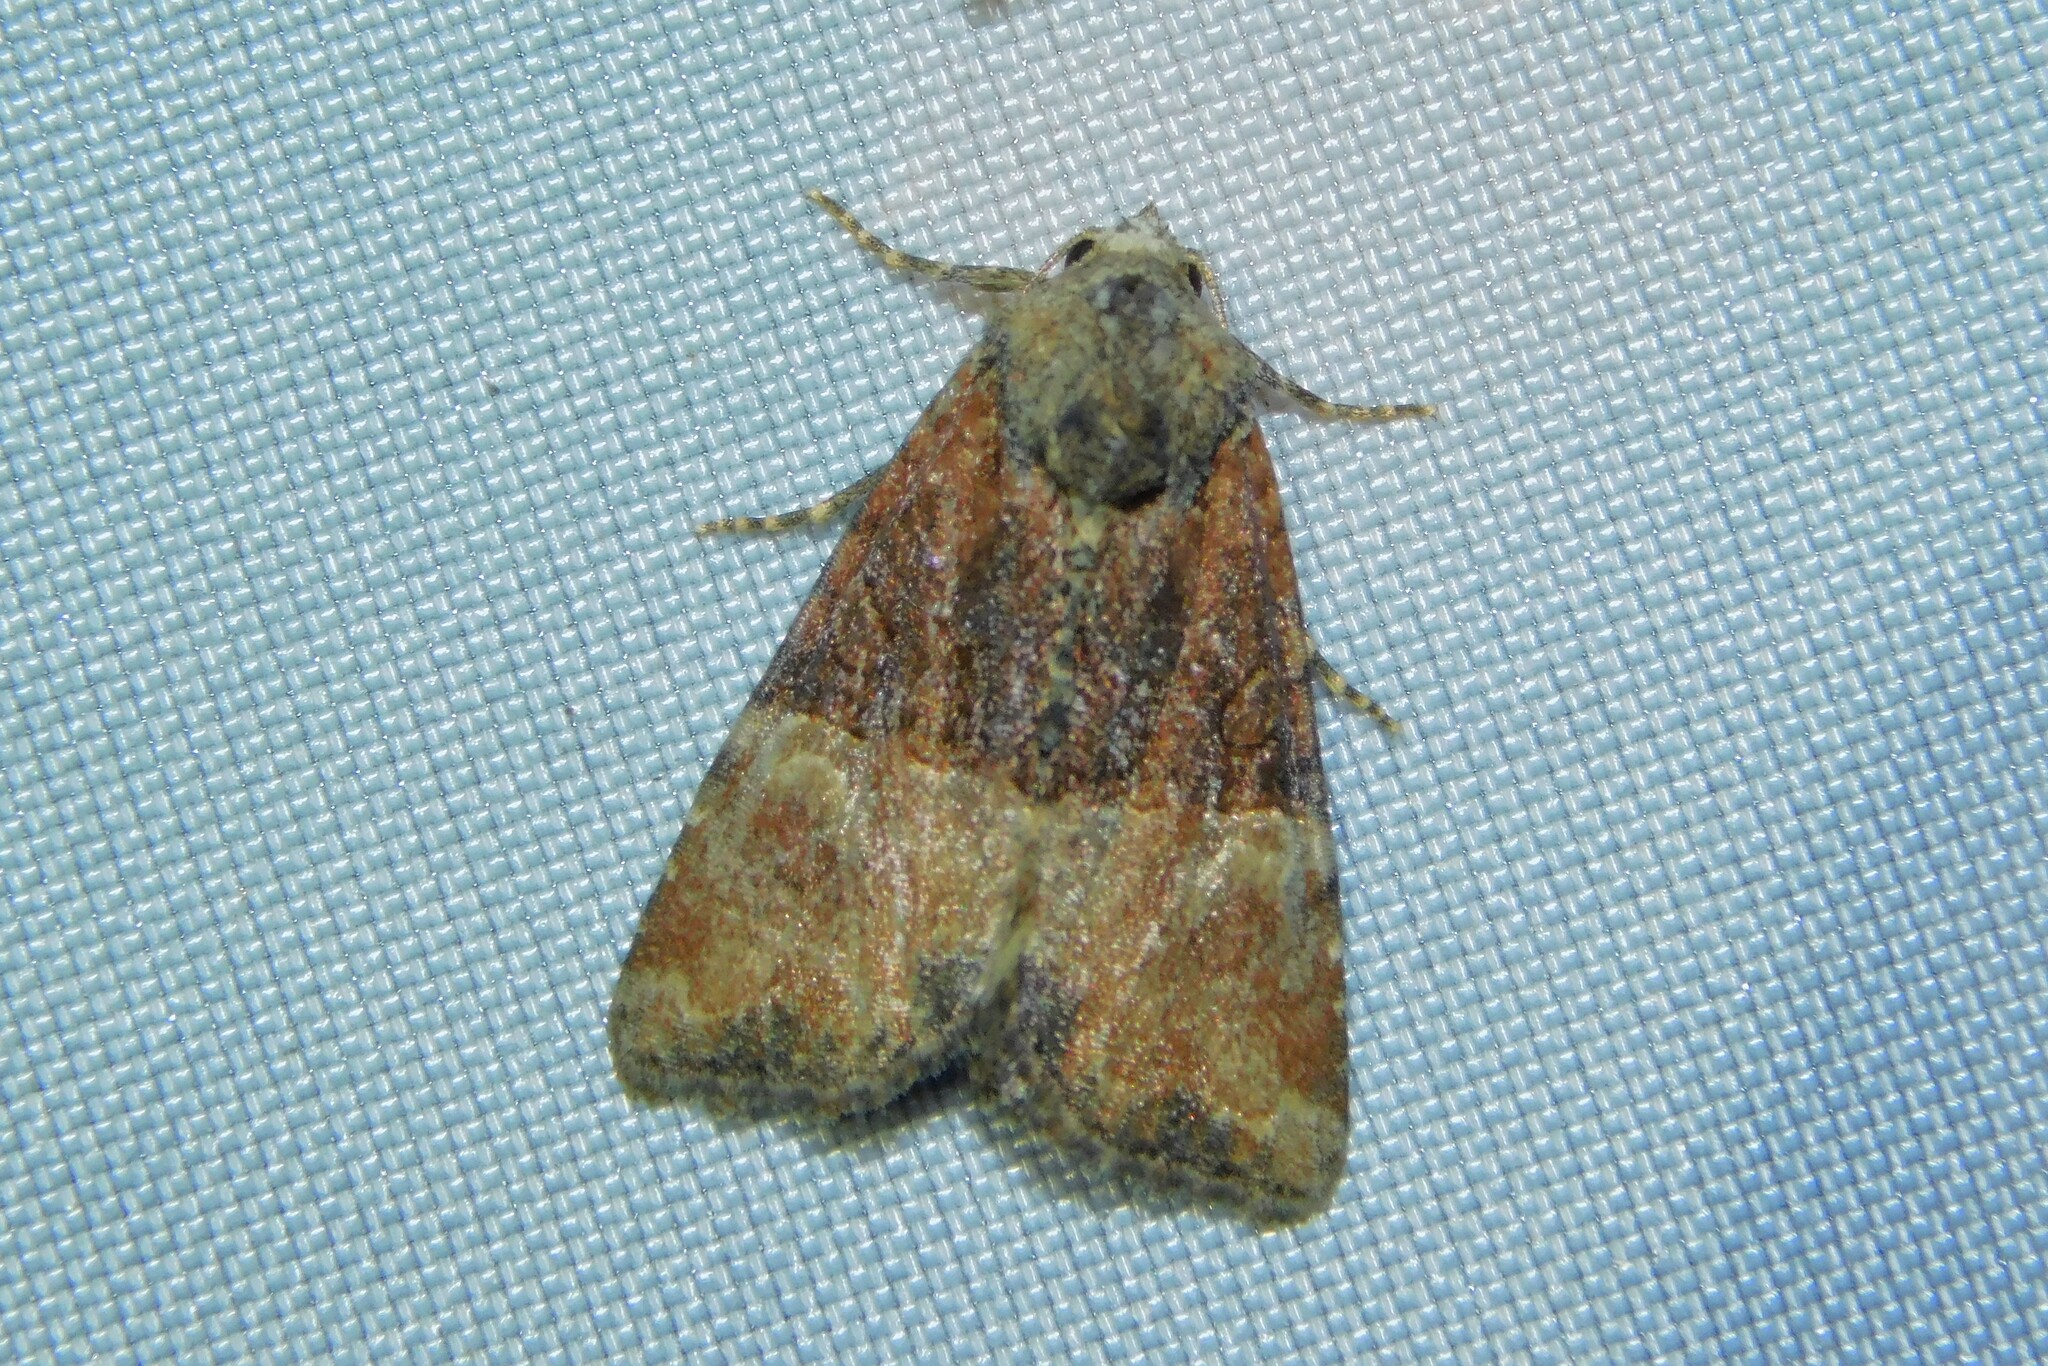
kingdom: Animalia
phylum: Arthropoda
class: Insecta
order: Lepidoptera
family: Noctuidae
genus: Mesoligia
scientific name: Mesoligia furuncula
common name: Cloaked minor
